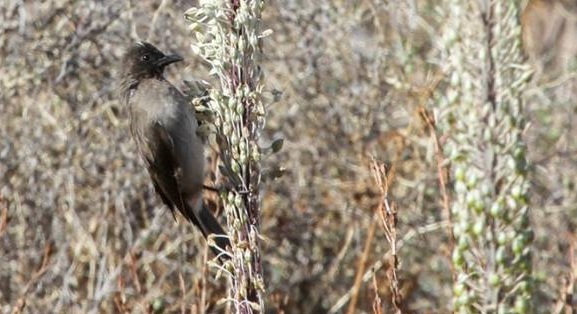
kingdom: Animalia
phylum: Chordata
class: Aves
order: Passeriformes
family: Pycnonotidae
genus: Pycnonotus
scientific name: Pycnonotus barbatus
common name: Common bulbul
